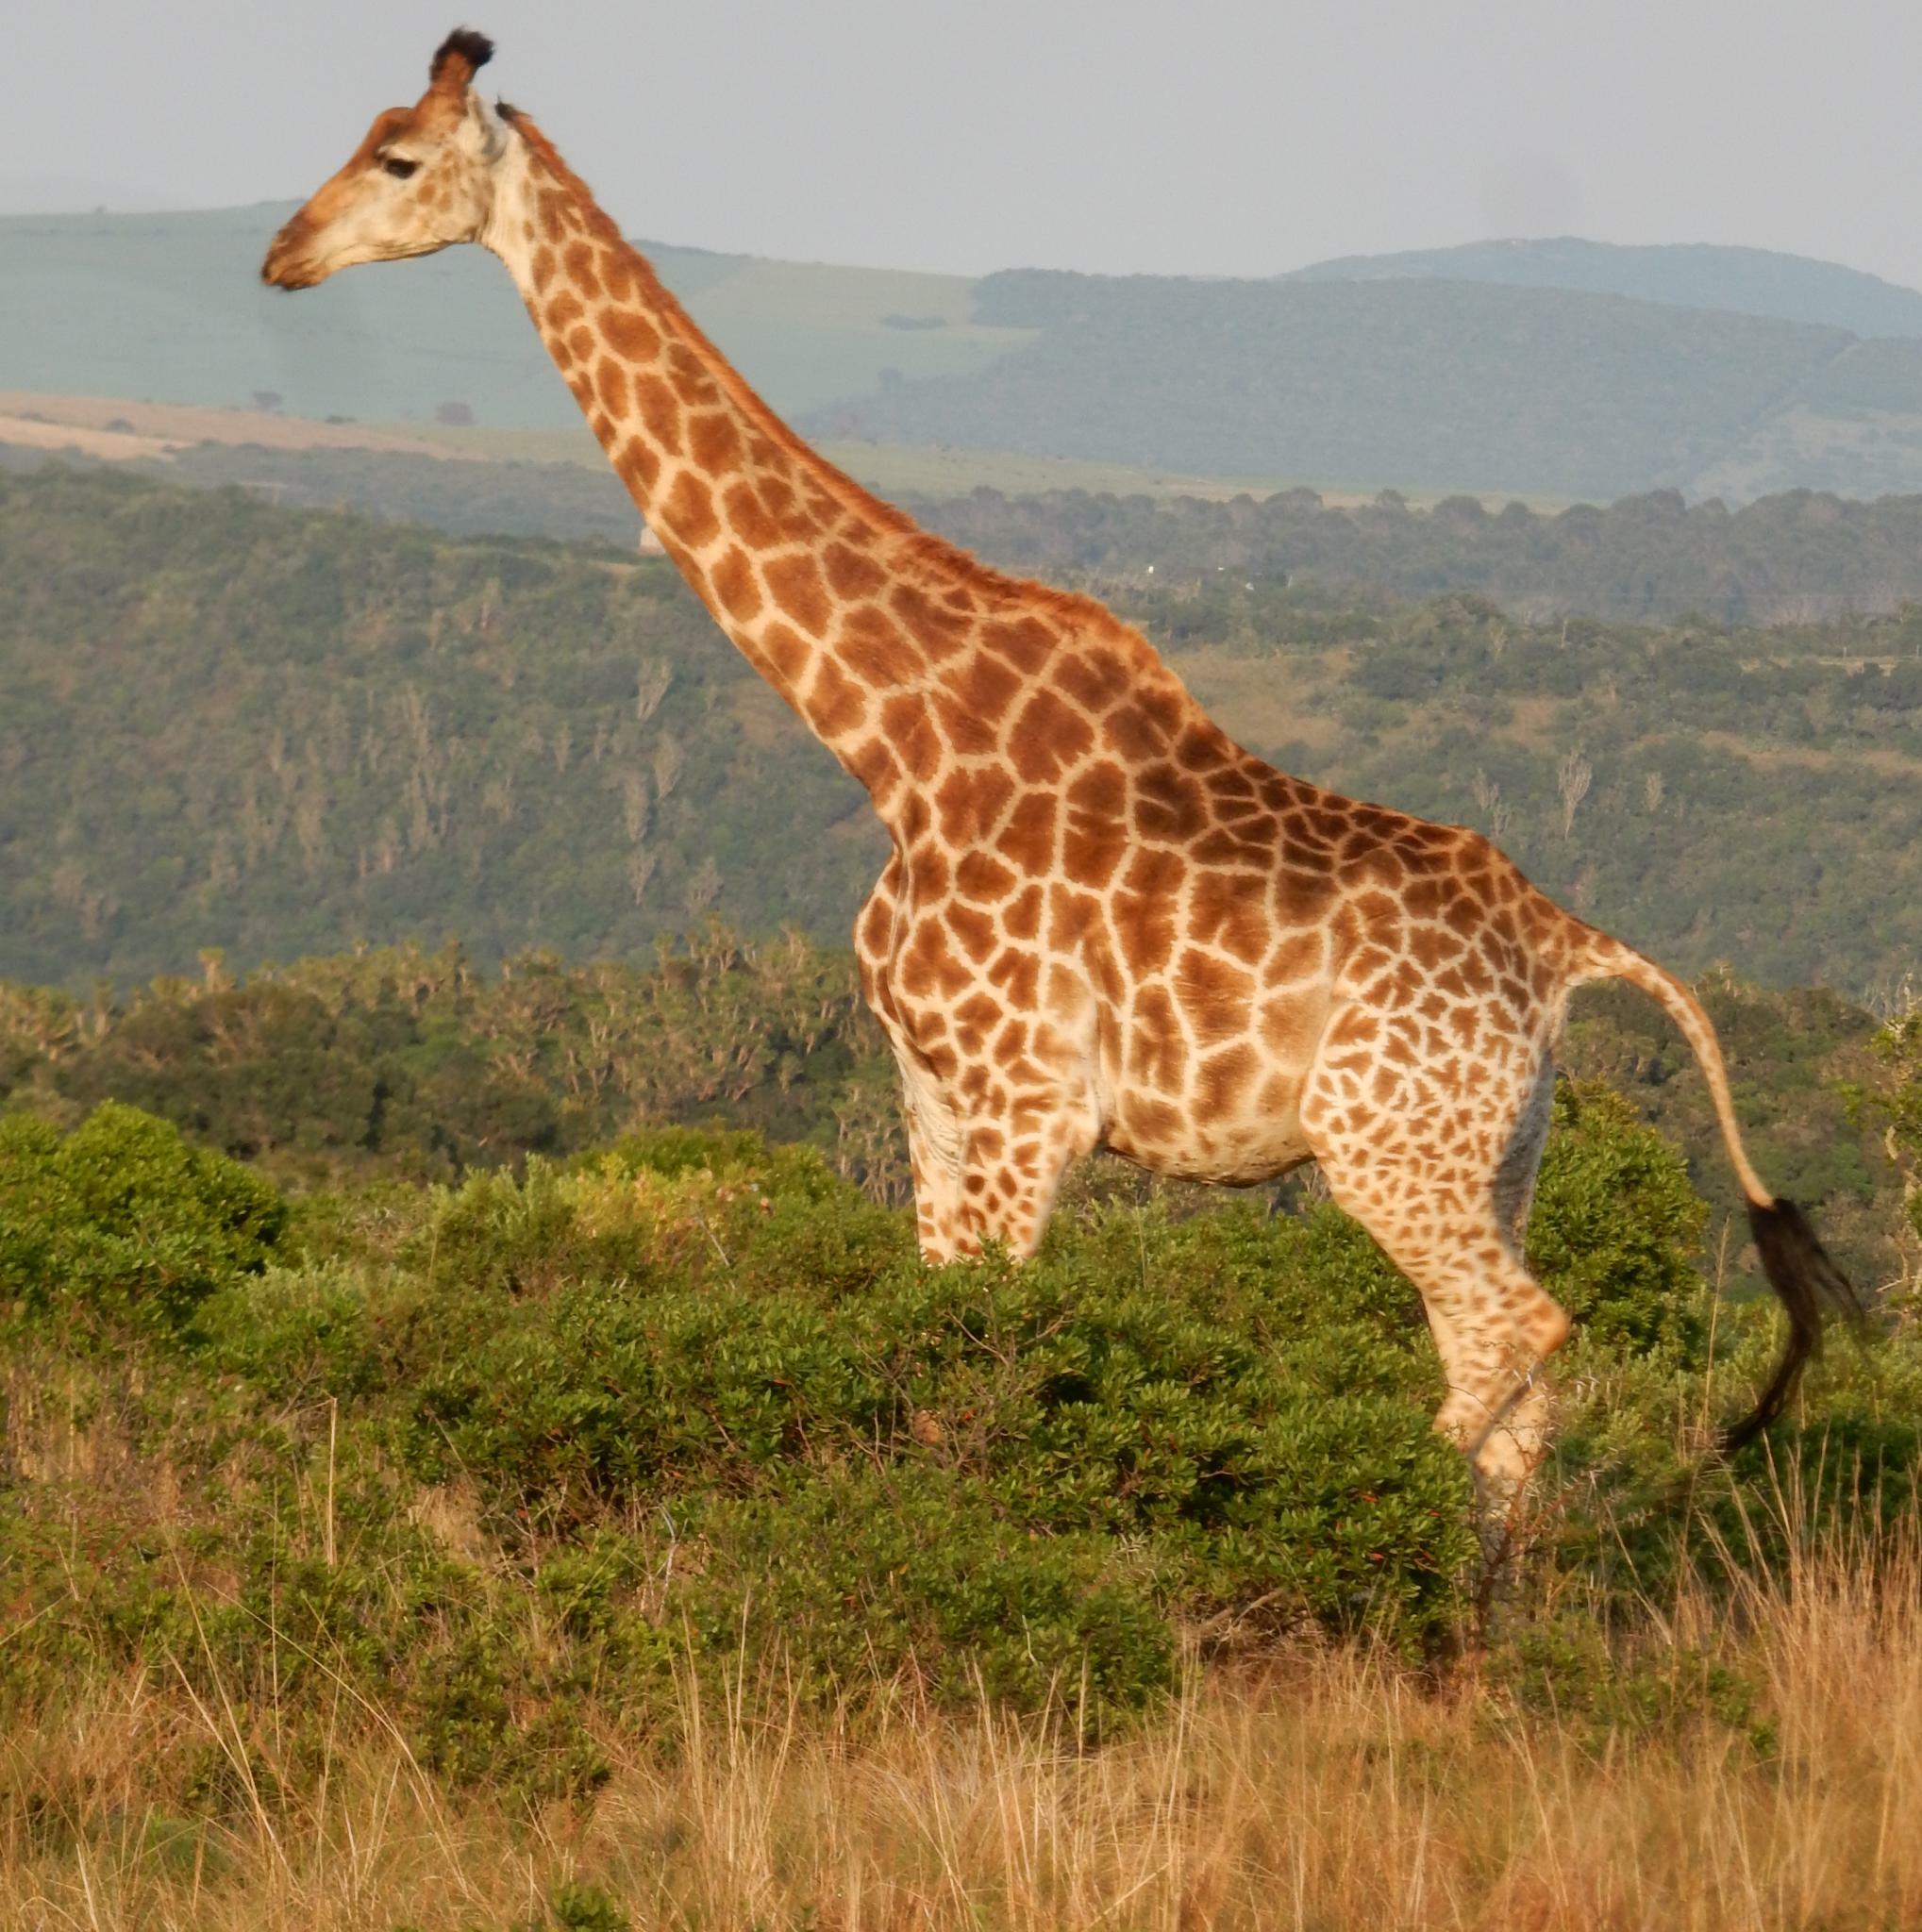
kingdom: Animalia
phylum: Chordata
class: Mammalia
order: Artiodactyla
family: Giraffidae
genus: Giraffa
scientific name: Giraffa giraffa
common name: Southern giraffe
